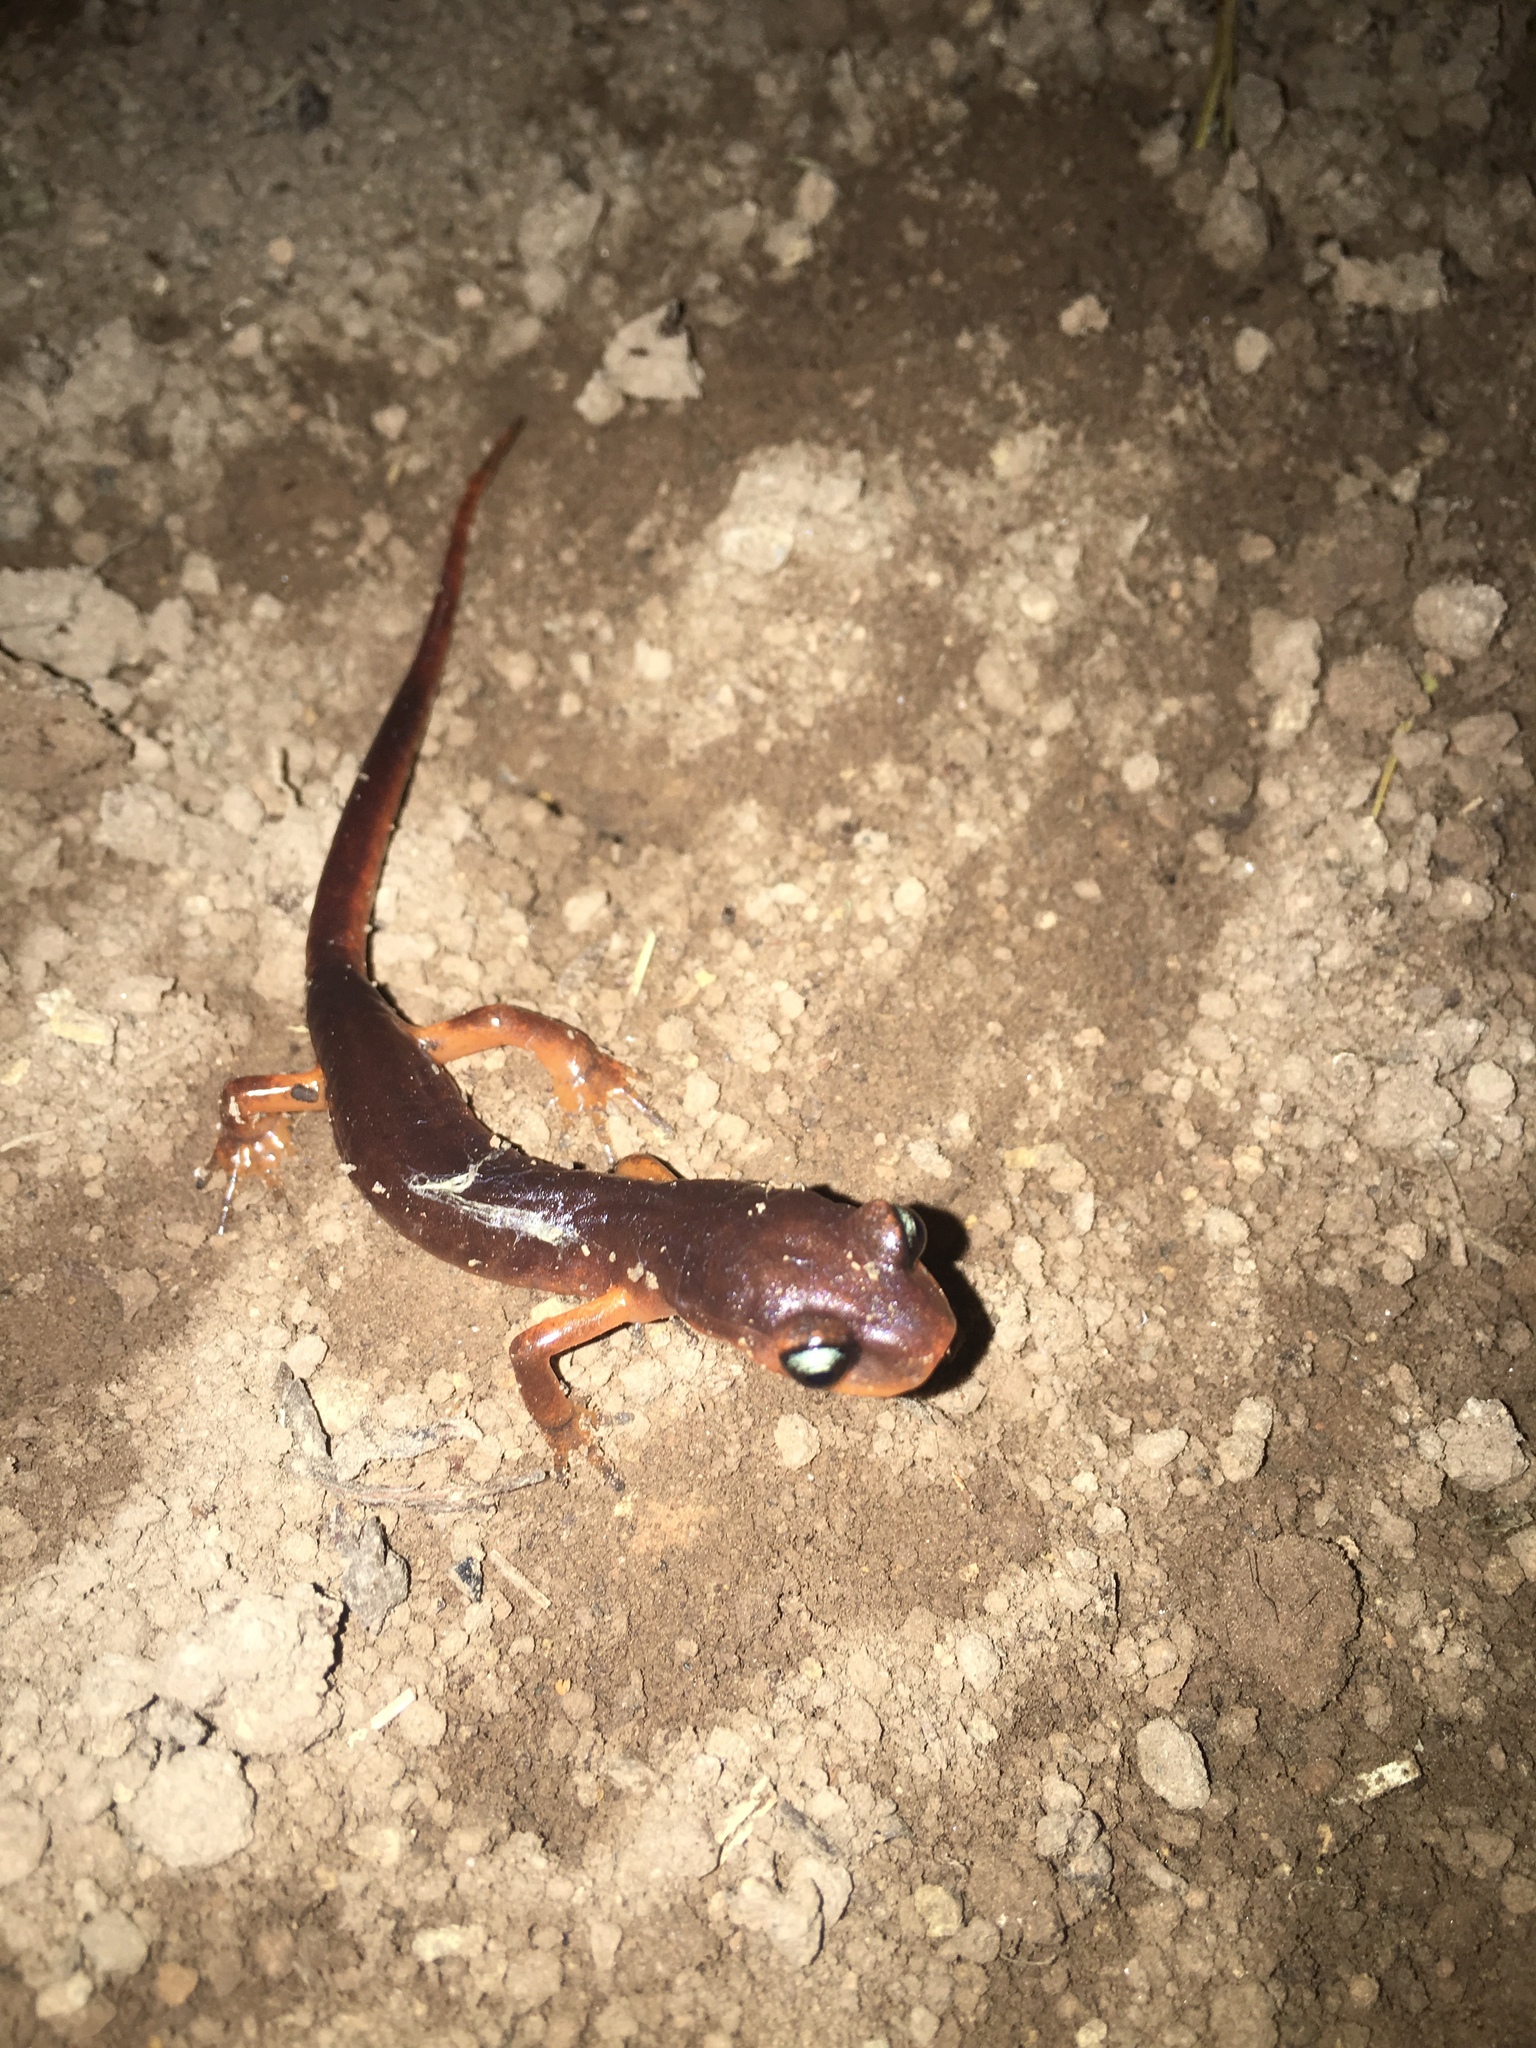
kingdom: Animalia
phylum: Chordata
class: Amphibia
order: Caudata
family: Plethodontidae
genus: Ensatina
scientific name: Ensatina eschscholtzii
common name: Ensatina
